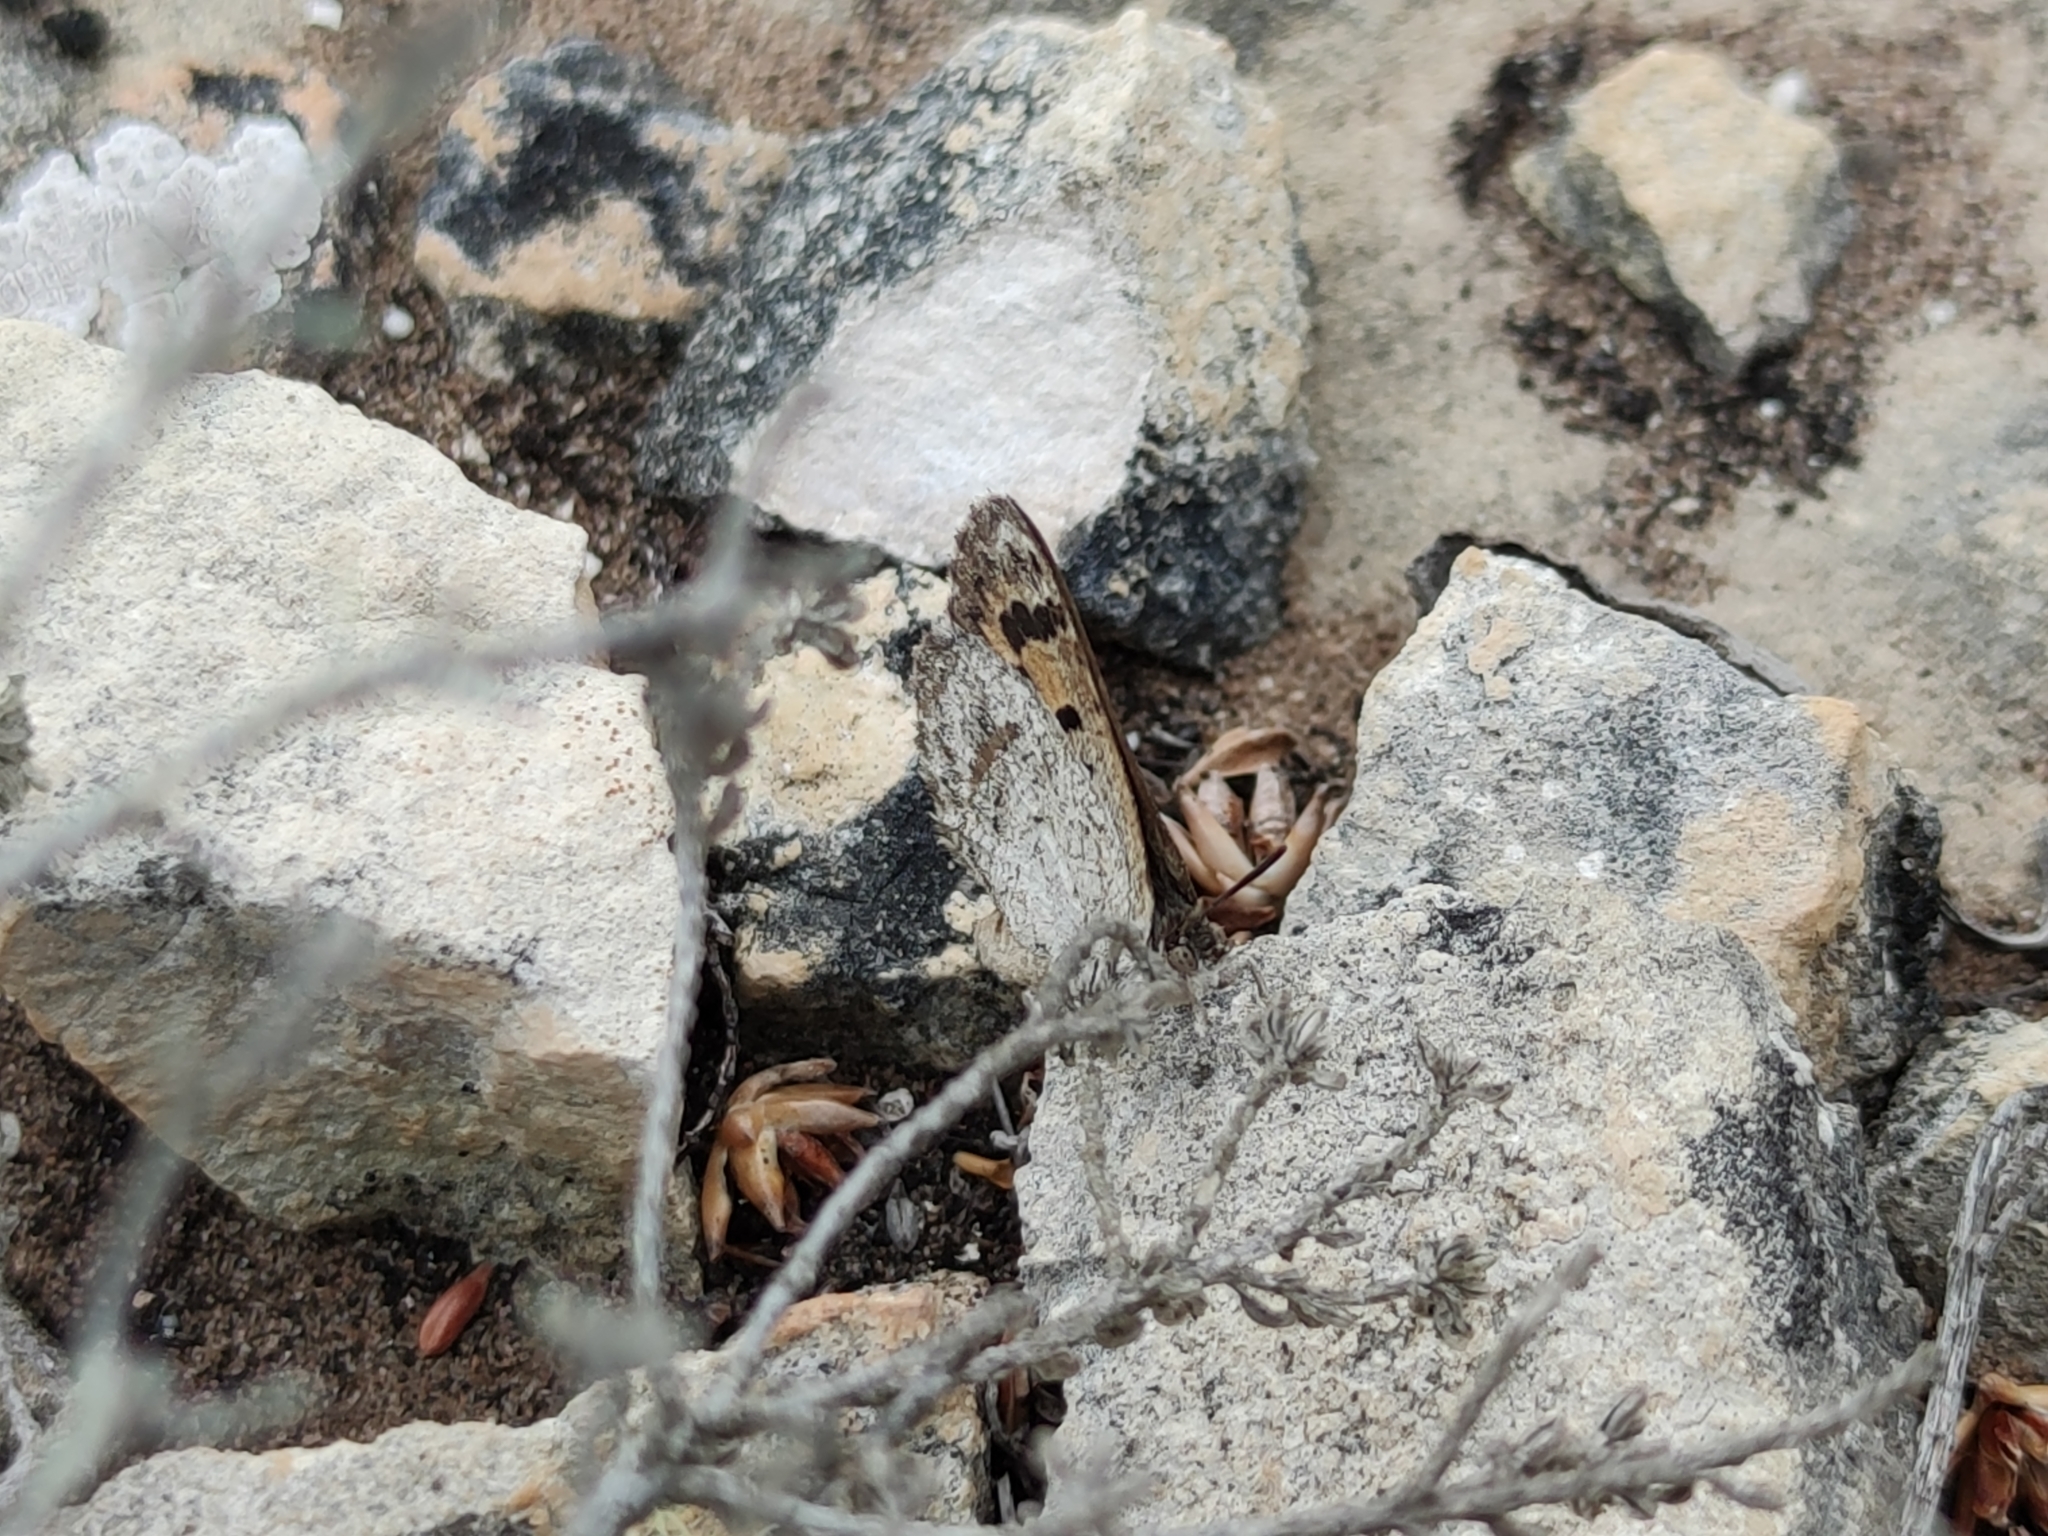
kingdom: Animalia
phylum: Arthropoda
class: Insecta
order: Lepidoptera
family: Lycaenidae
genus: Thestor
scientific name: Thestor rossouwi
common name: Rossouw's skolly
